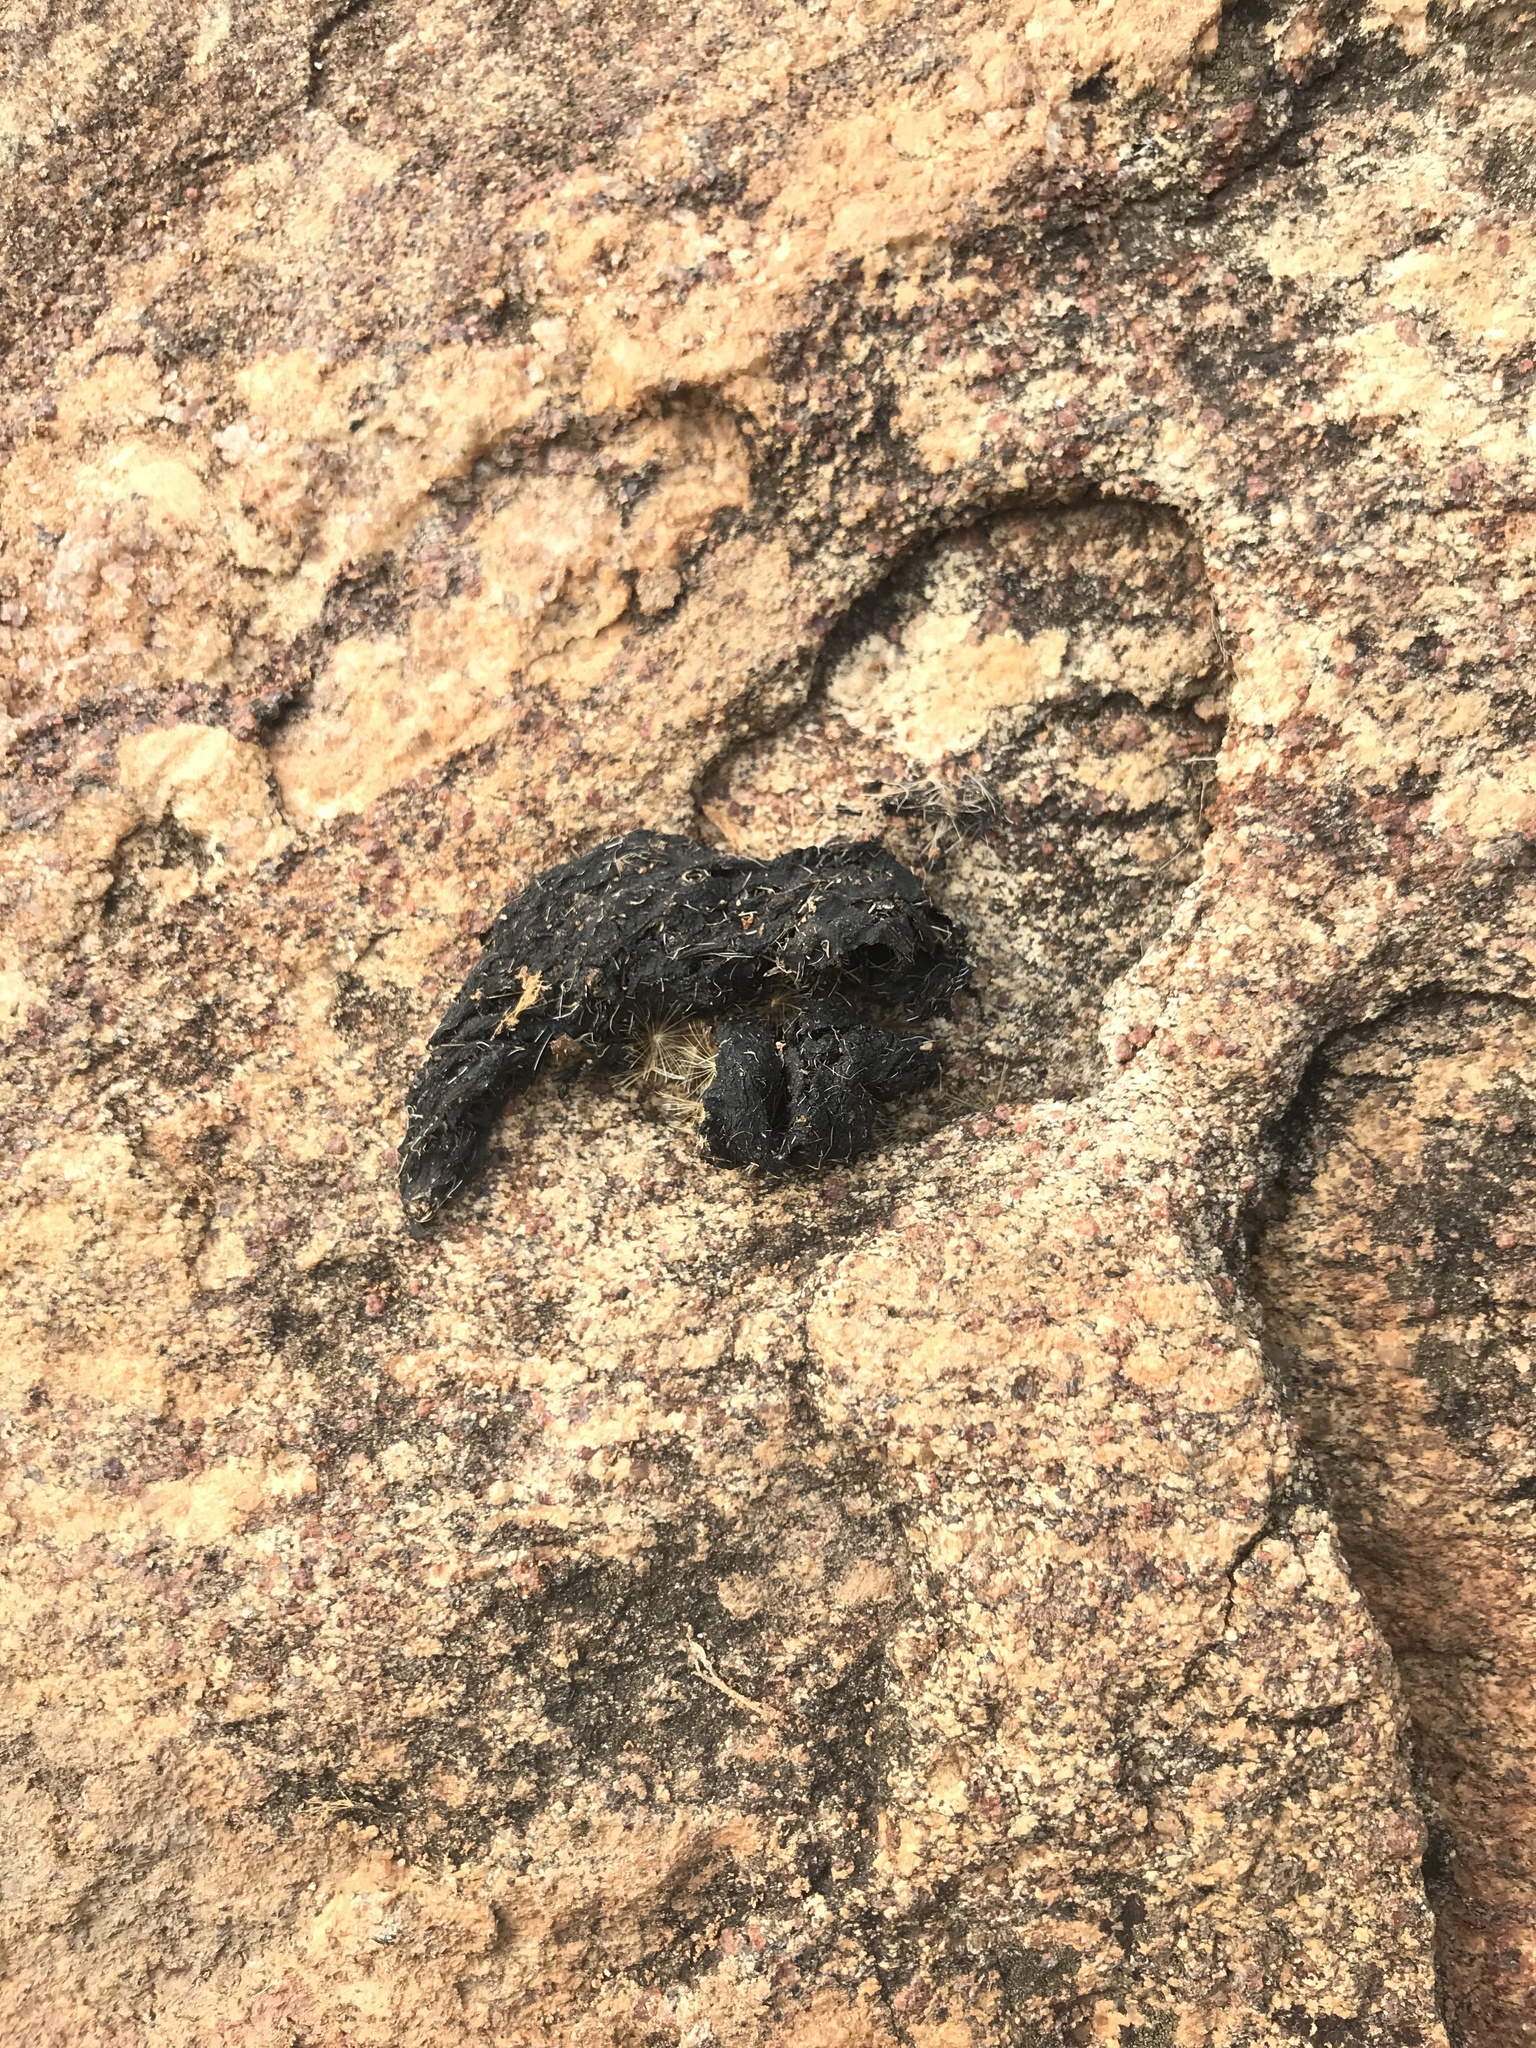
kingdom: Animalia
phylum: Chordata
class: Mammalia
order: Carnivora
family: Canidae
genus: Cuon
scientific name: Cuon alpinus
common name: Dhole
